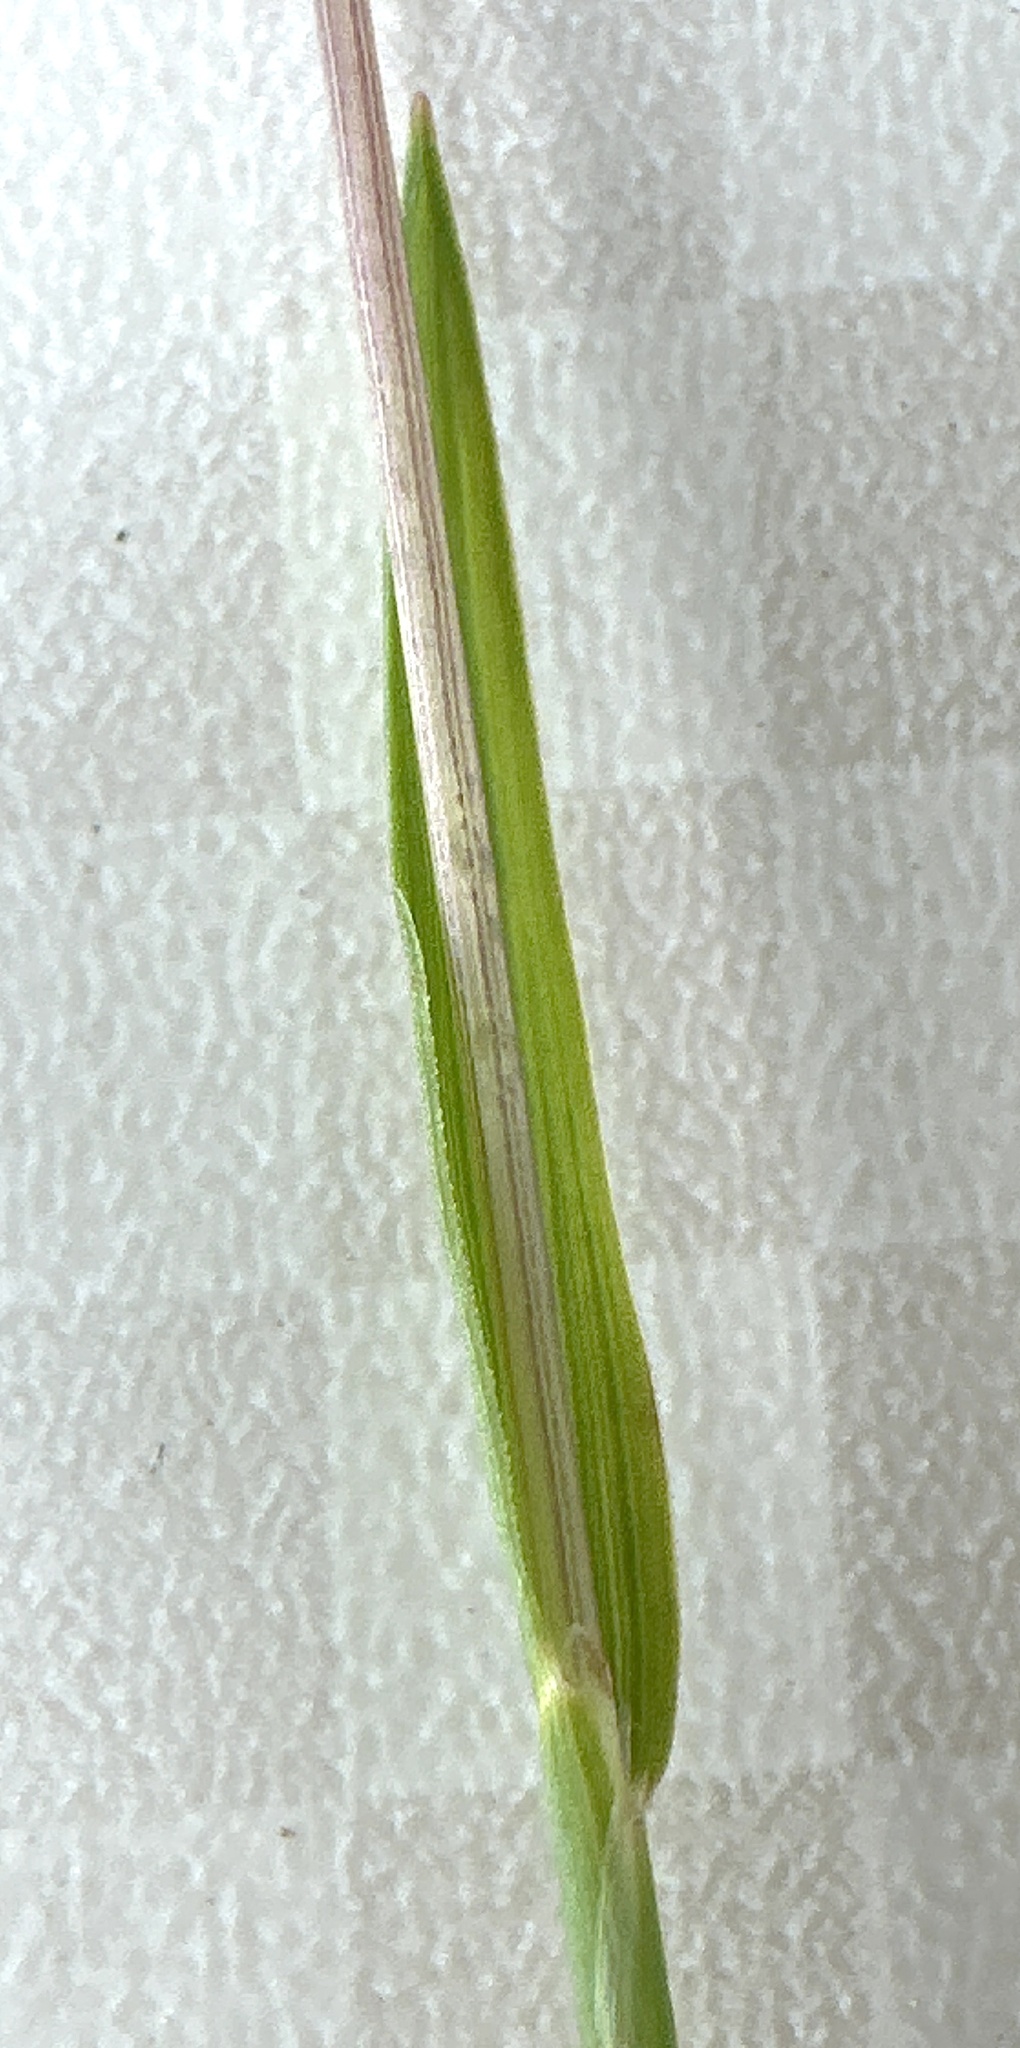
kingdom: Plantae
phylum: Tracheophyta
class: Liliopsida
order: Poales
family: Poaceae
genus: Briza
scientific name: Briza media
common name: Quaking grass
